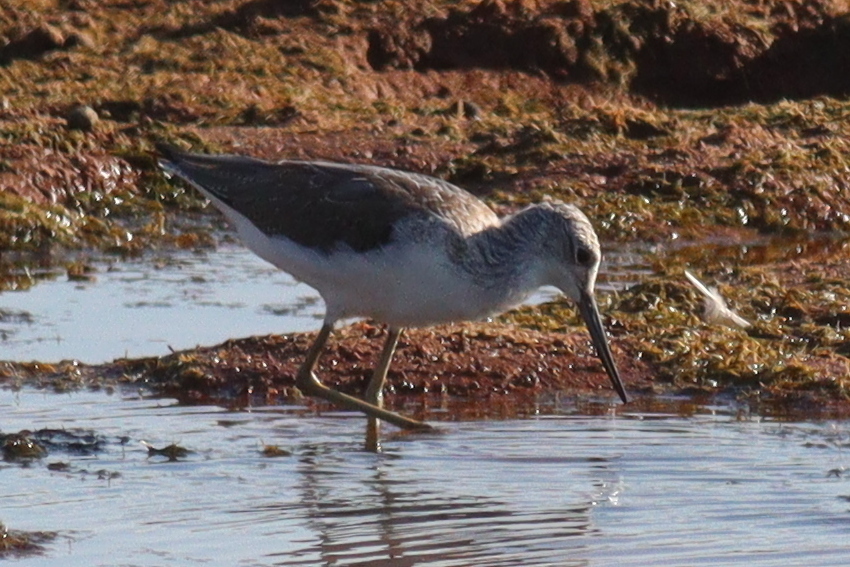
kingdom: Animalia
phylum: Chordata
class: Aves
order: Charadriiformes
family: Scolopacidae
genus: Tringa
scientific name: Tringa nebularia
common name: Common greenshank
